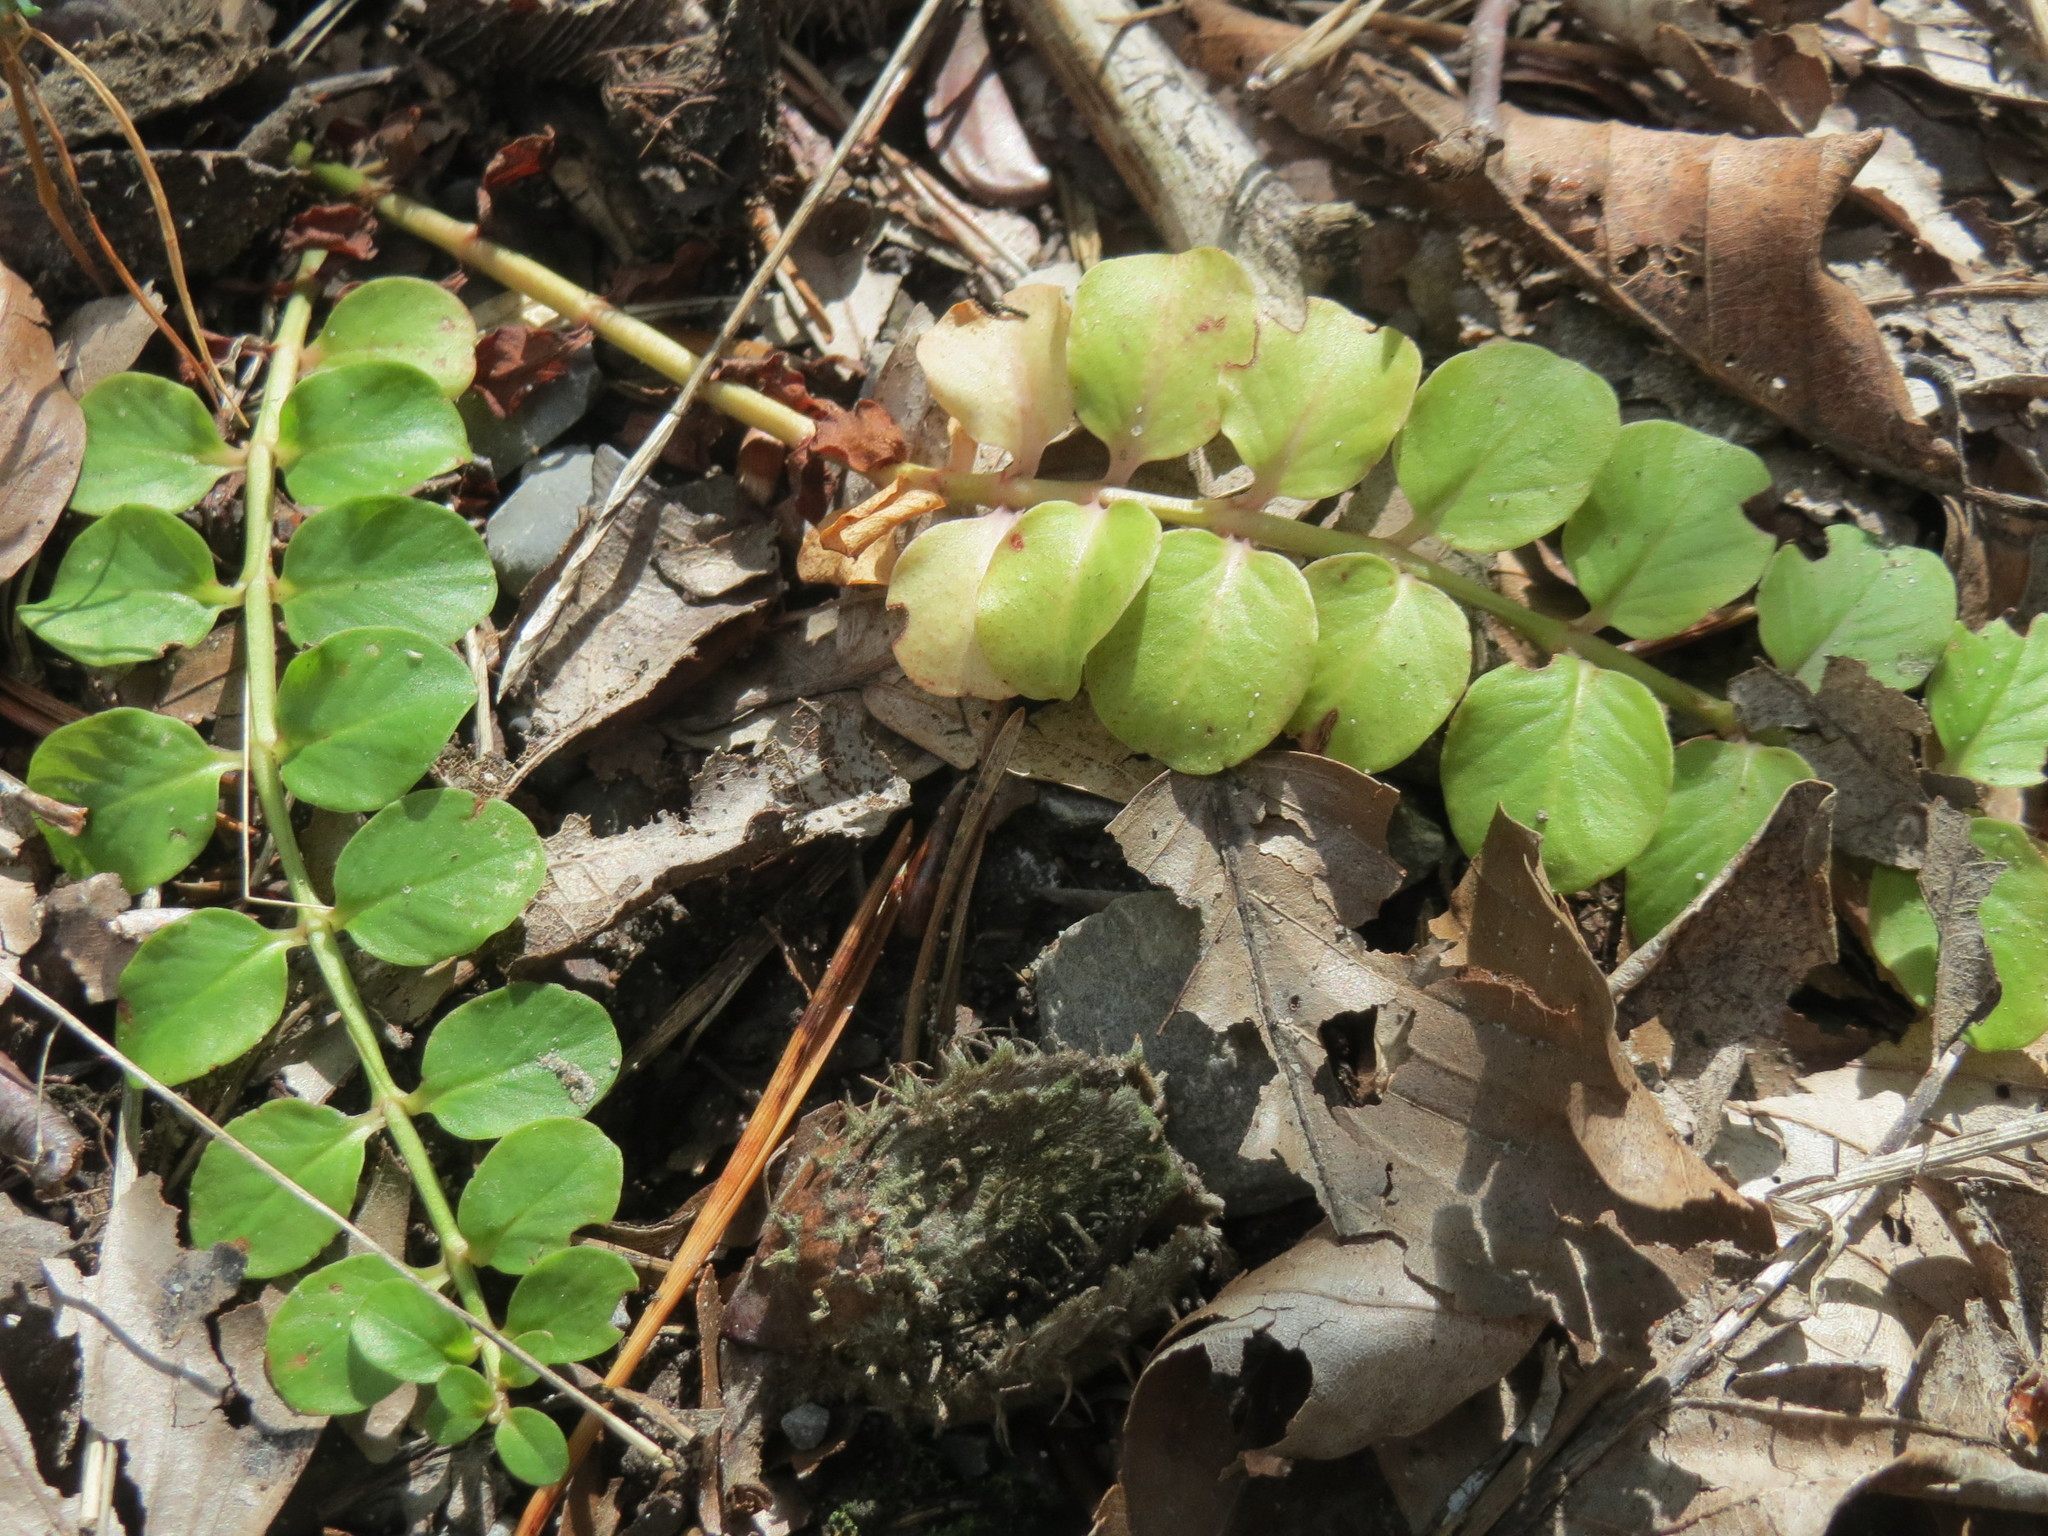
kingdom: Plantae
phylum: Tracheophyta
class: Magnoliopsida
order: Ericales
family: Primulaceae
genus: Lysimachia
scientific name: Lysimachia nummularia
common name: Moneywort
